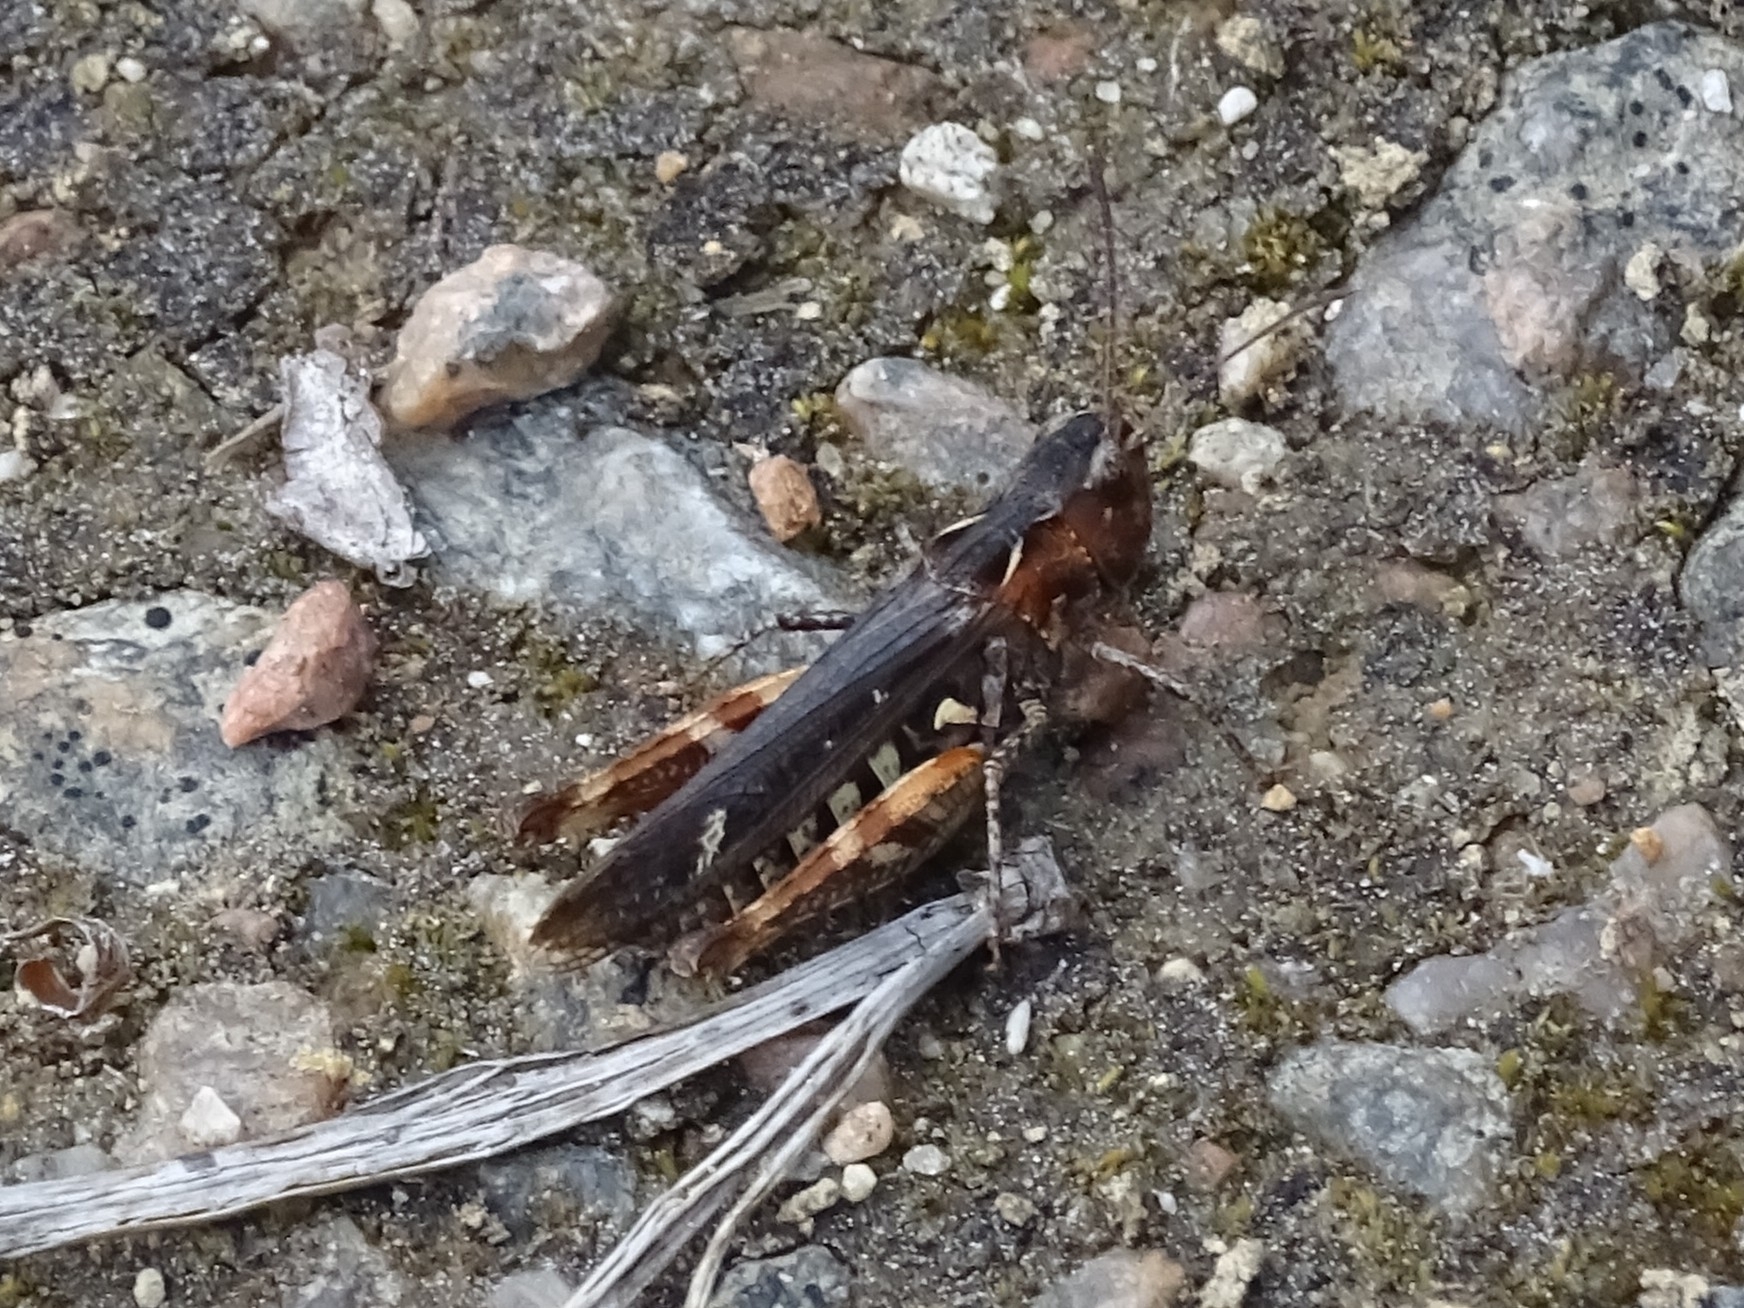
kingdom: Animalia
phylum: Arthropoda
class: Insecta
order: Orthoptera
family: Acrididae
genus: Myrmeleotettix
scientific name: Myrmeleotettix maculatus
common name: Mottled grasshopper
